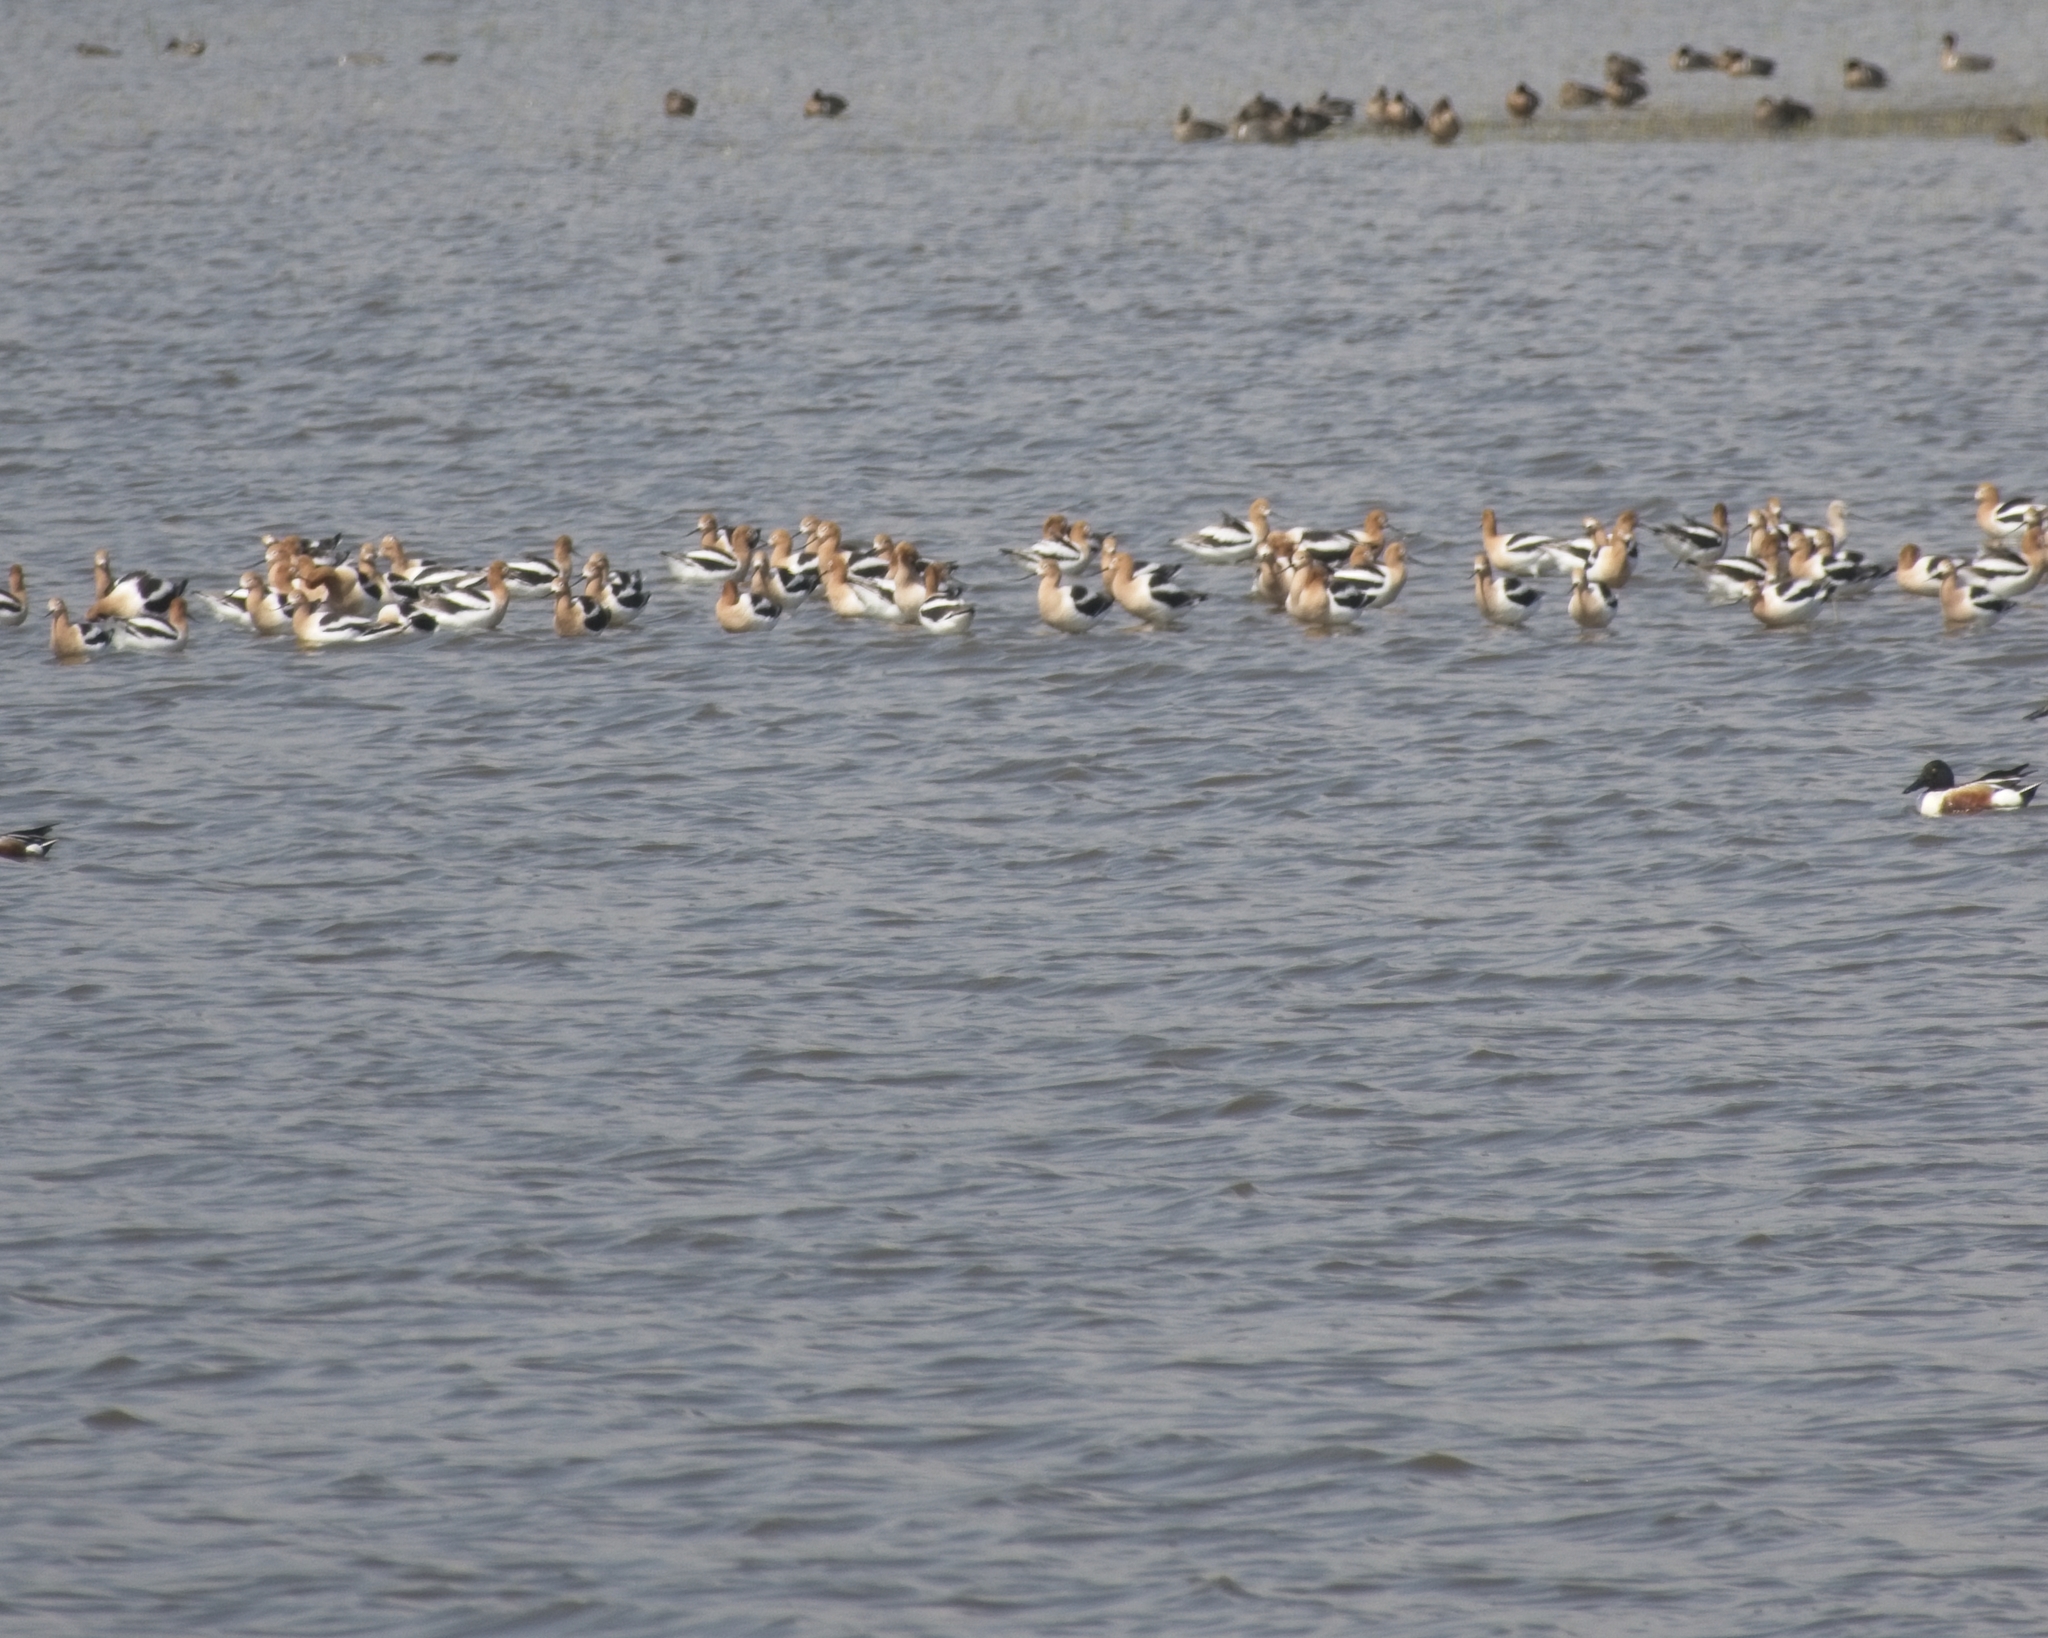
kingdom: Animalia
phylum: Chordata
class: Aves
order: Charadriiformes
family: Recurvirostridae
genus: Recurvirostra
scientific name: Recurvirostra americana
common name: American avocet
